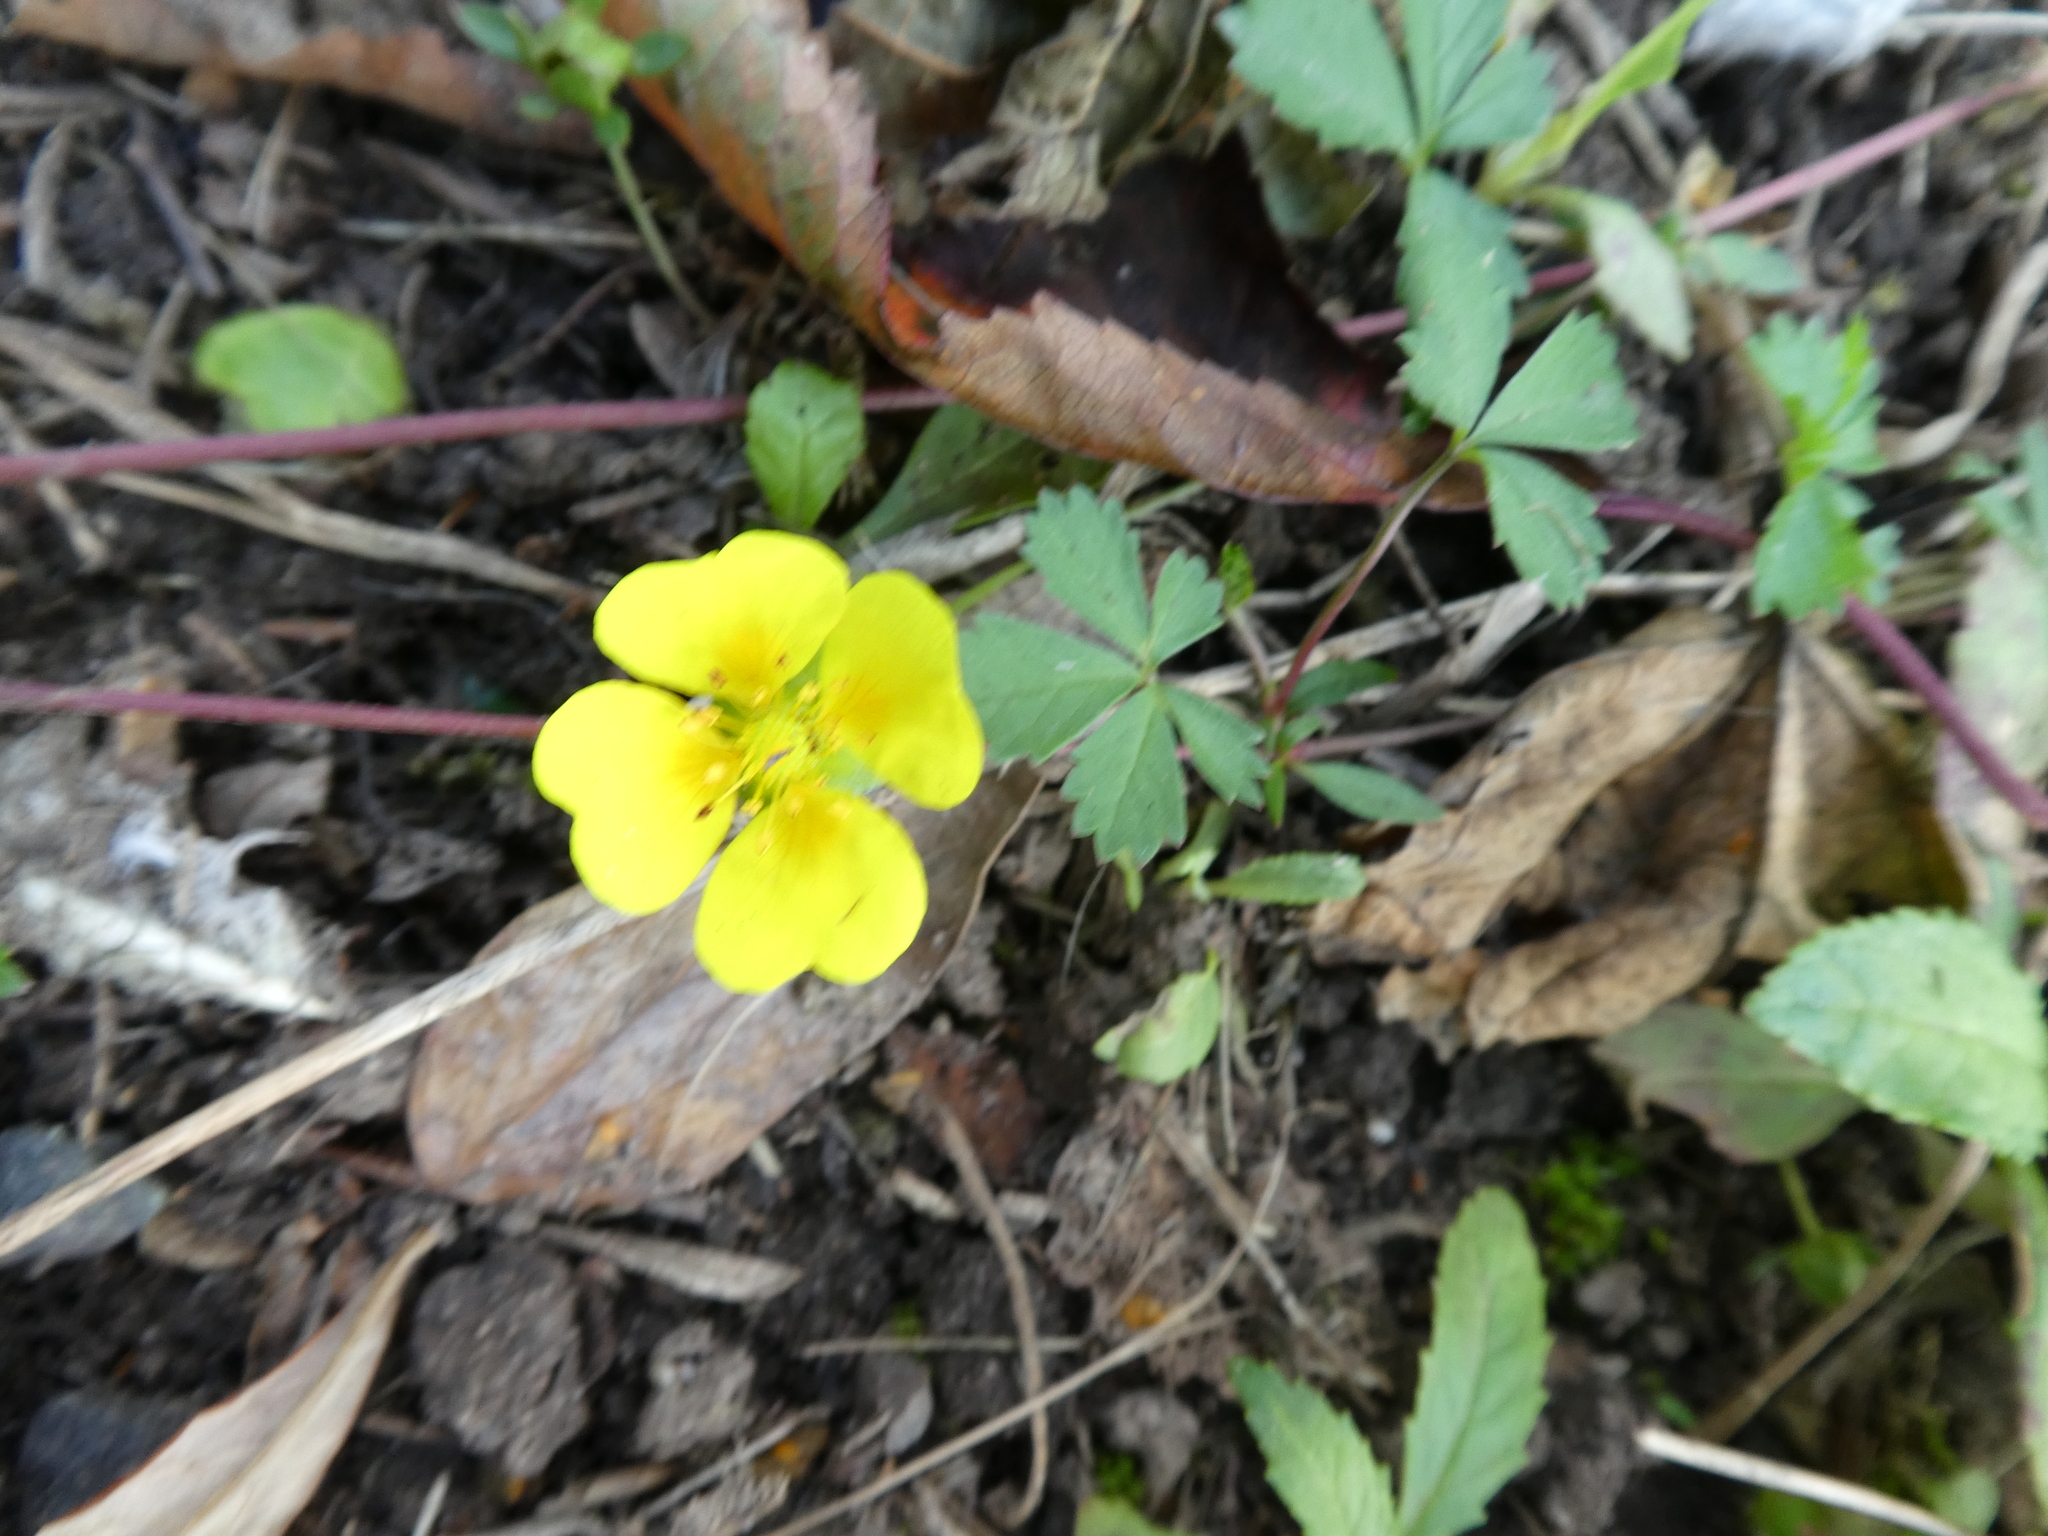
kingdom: Plantae
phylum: Tracheophyta
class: Magnoliopsida
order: Rosales
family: Rosaceae
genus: Potentilla
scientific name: Potentilla anglica
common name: Trailing tormentil
